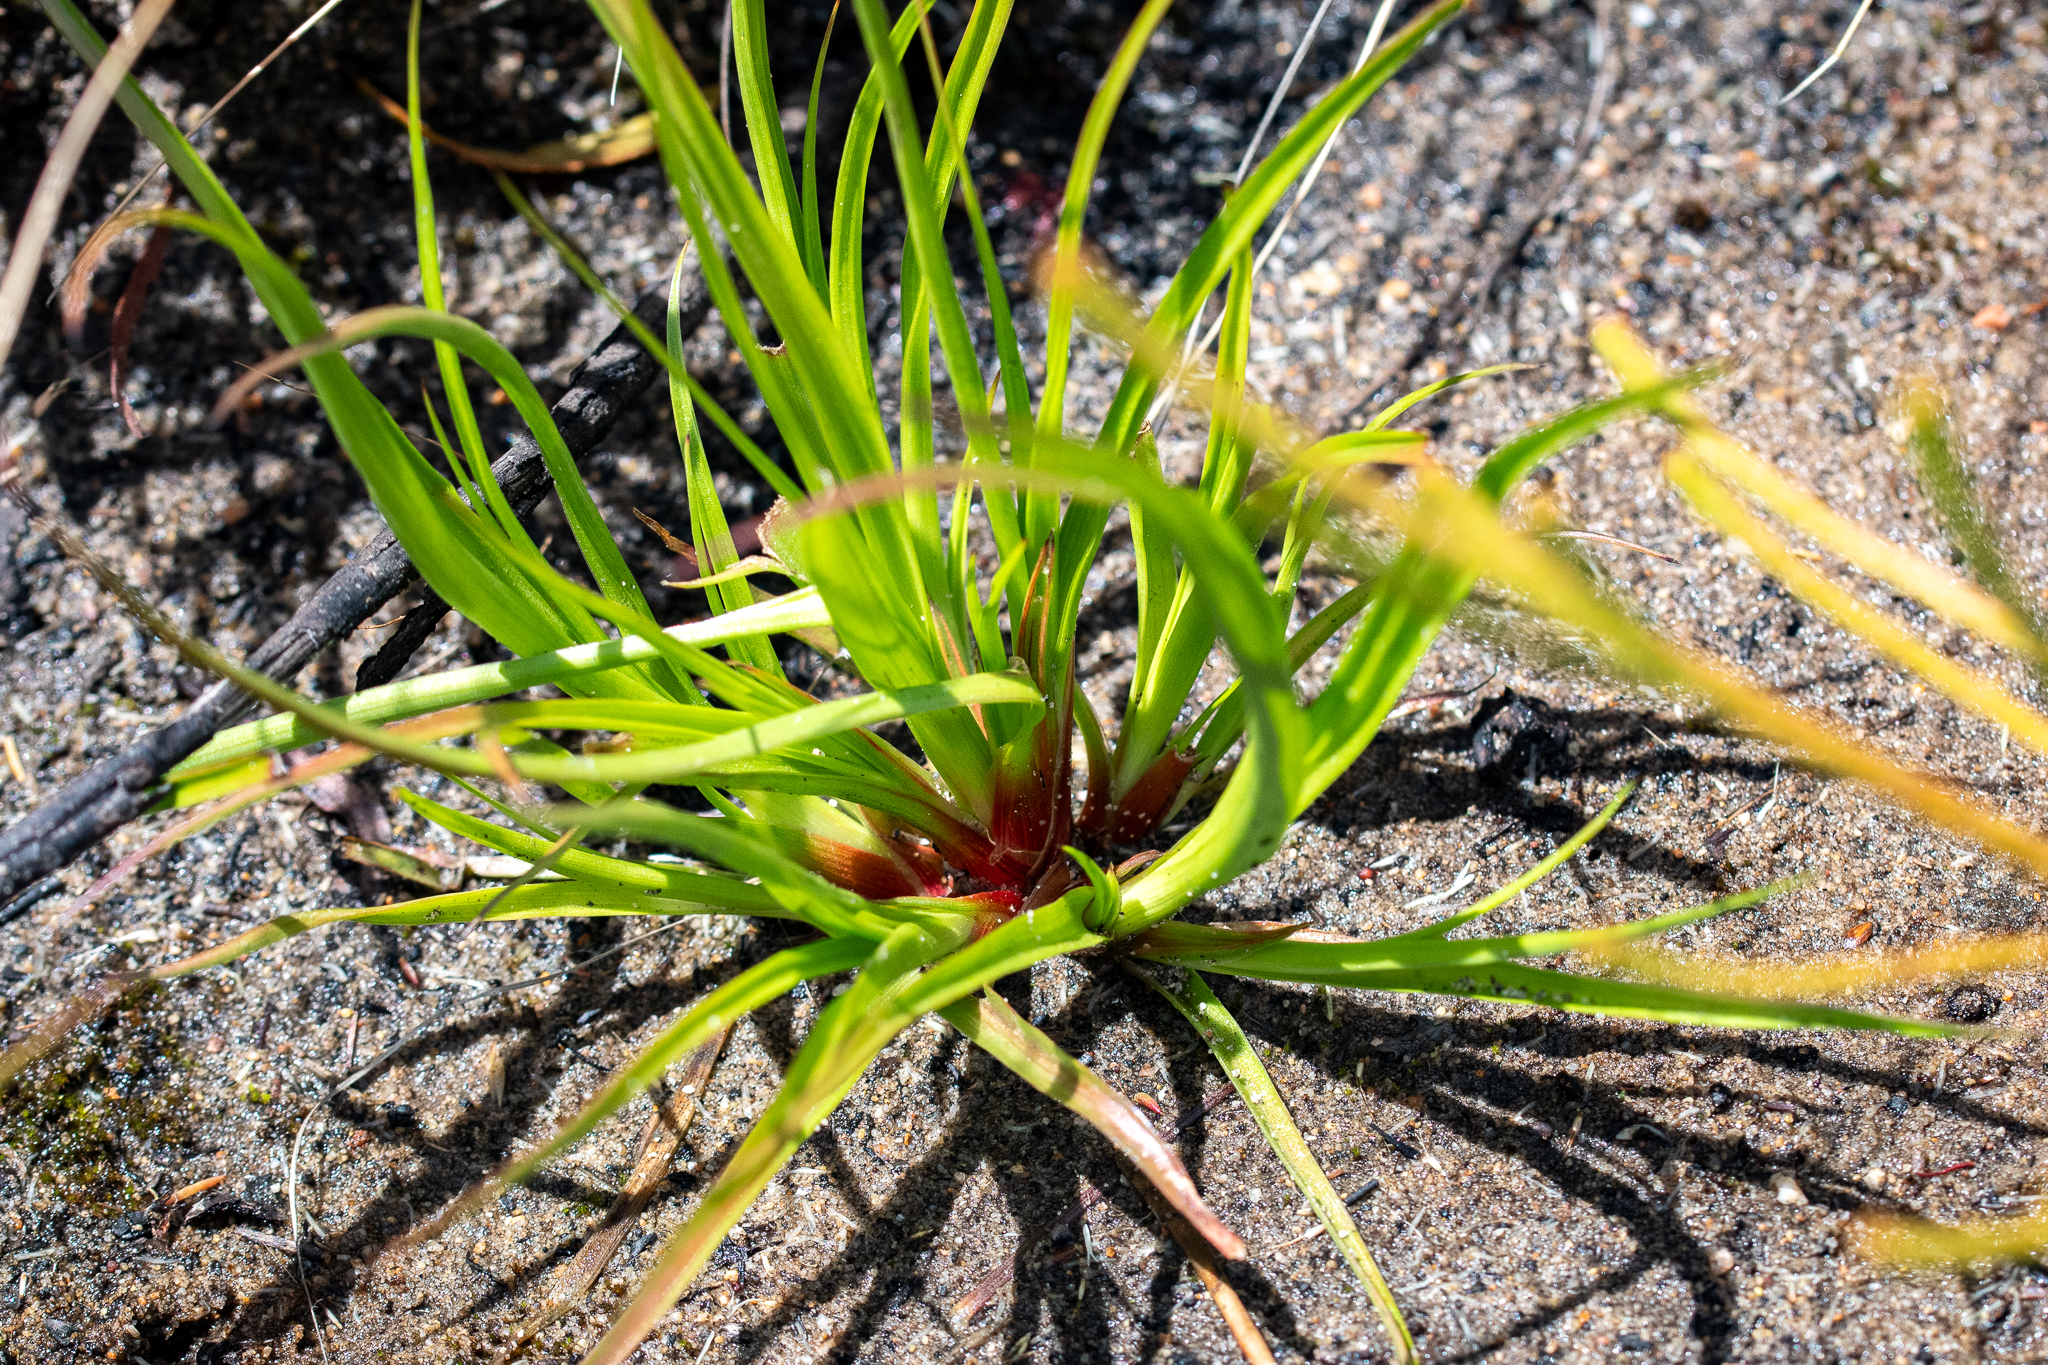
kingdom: Plantae
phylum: Tracheophyta
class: Liliopsida
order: Poales
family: Juncaceae
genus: Juncus
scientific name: Juncus lomatophyllus
